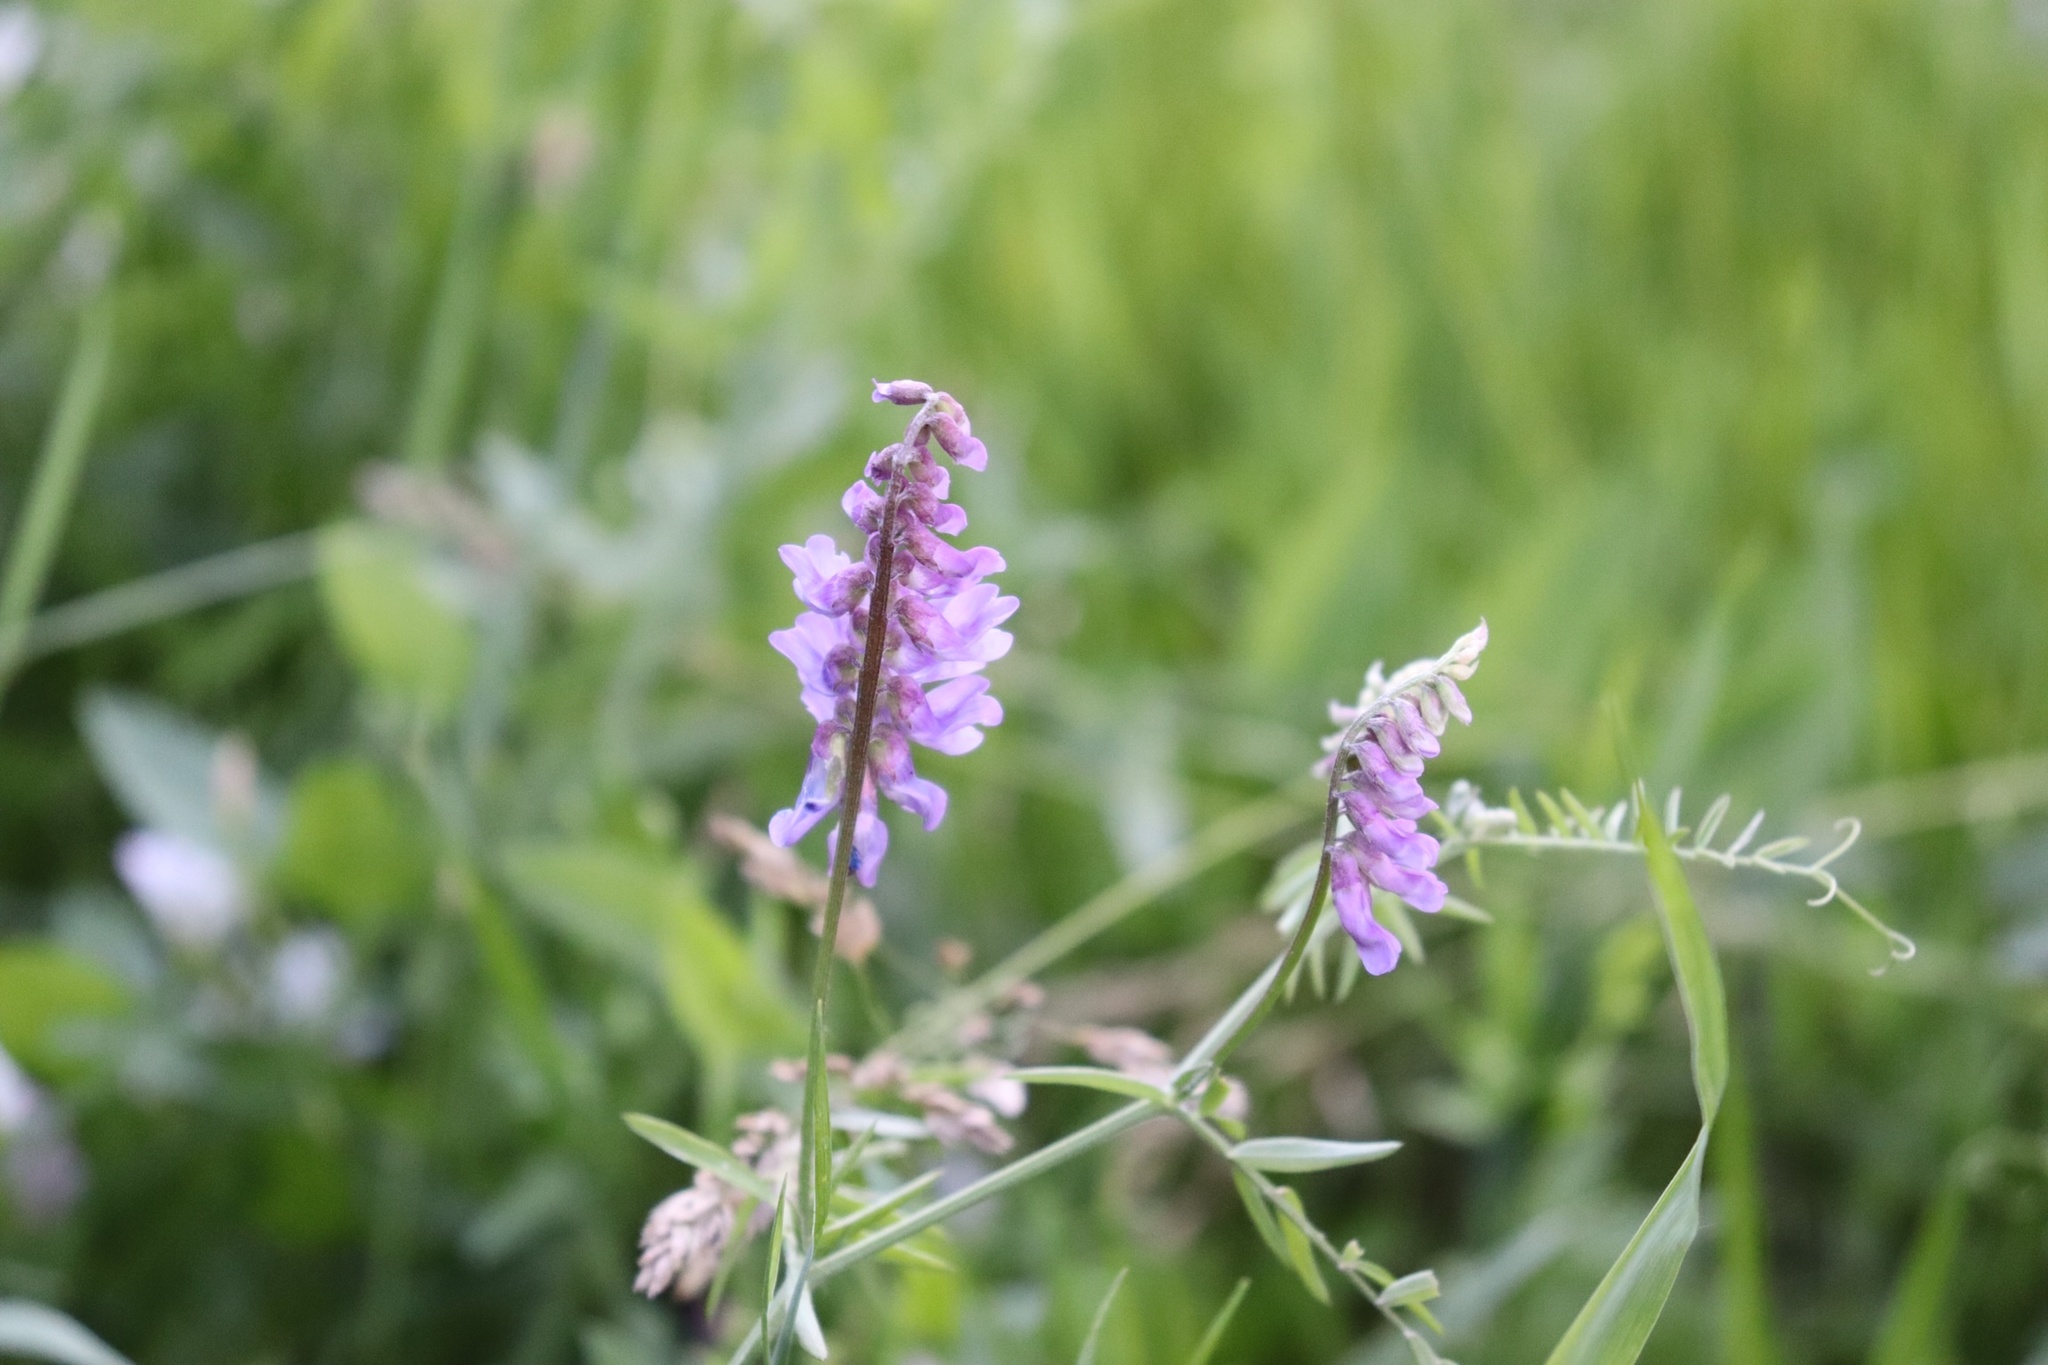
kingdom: Plantae
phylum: Tracheophyta
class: Magnoliopsida
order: Fabales
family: Fabaceae
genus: Vicia
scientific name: Vicia cracca
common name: Bird vetch
